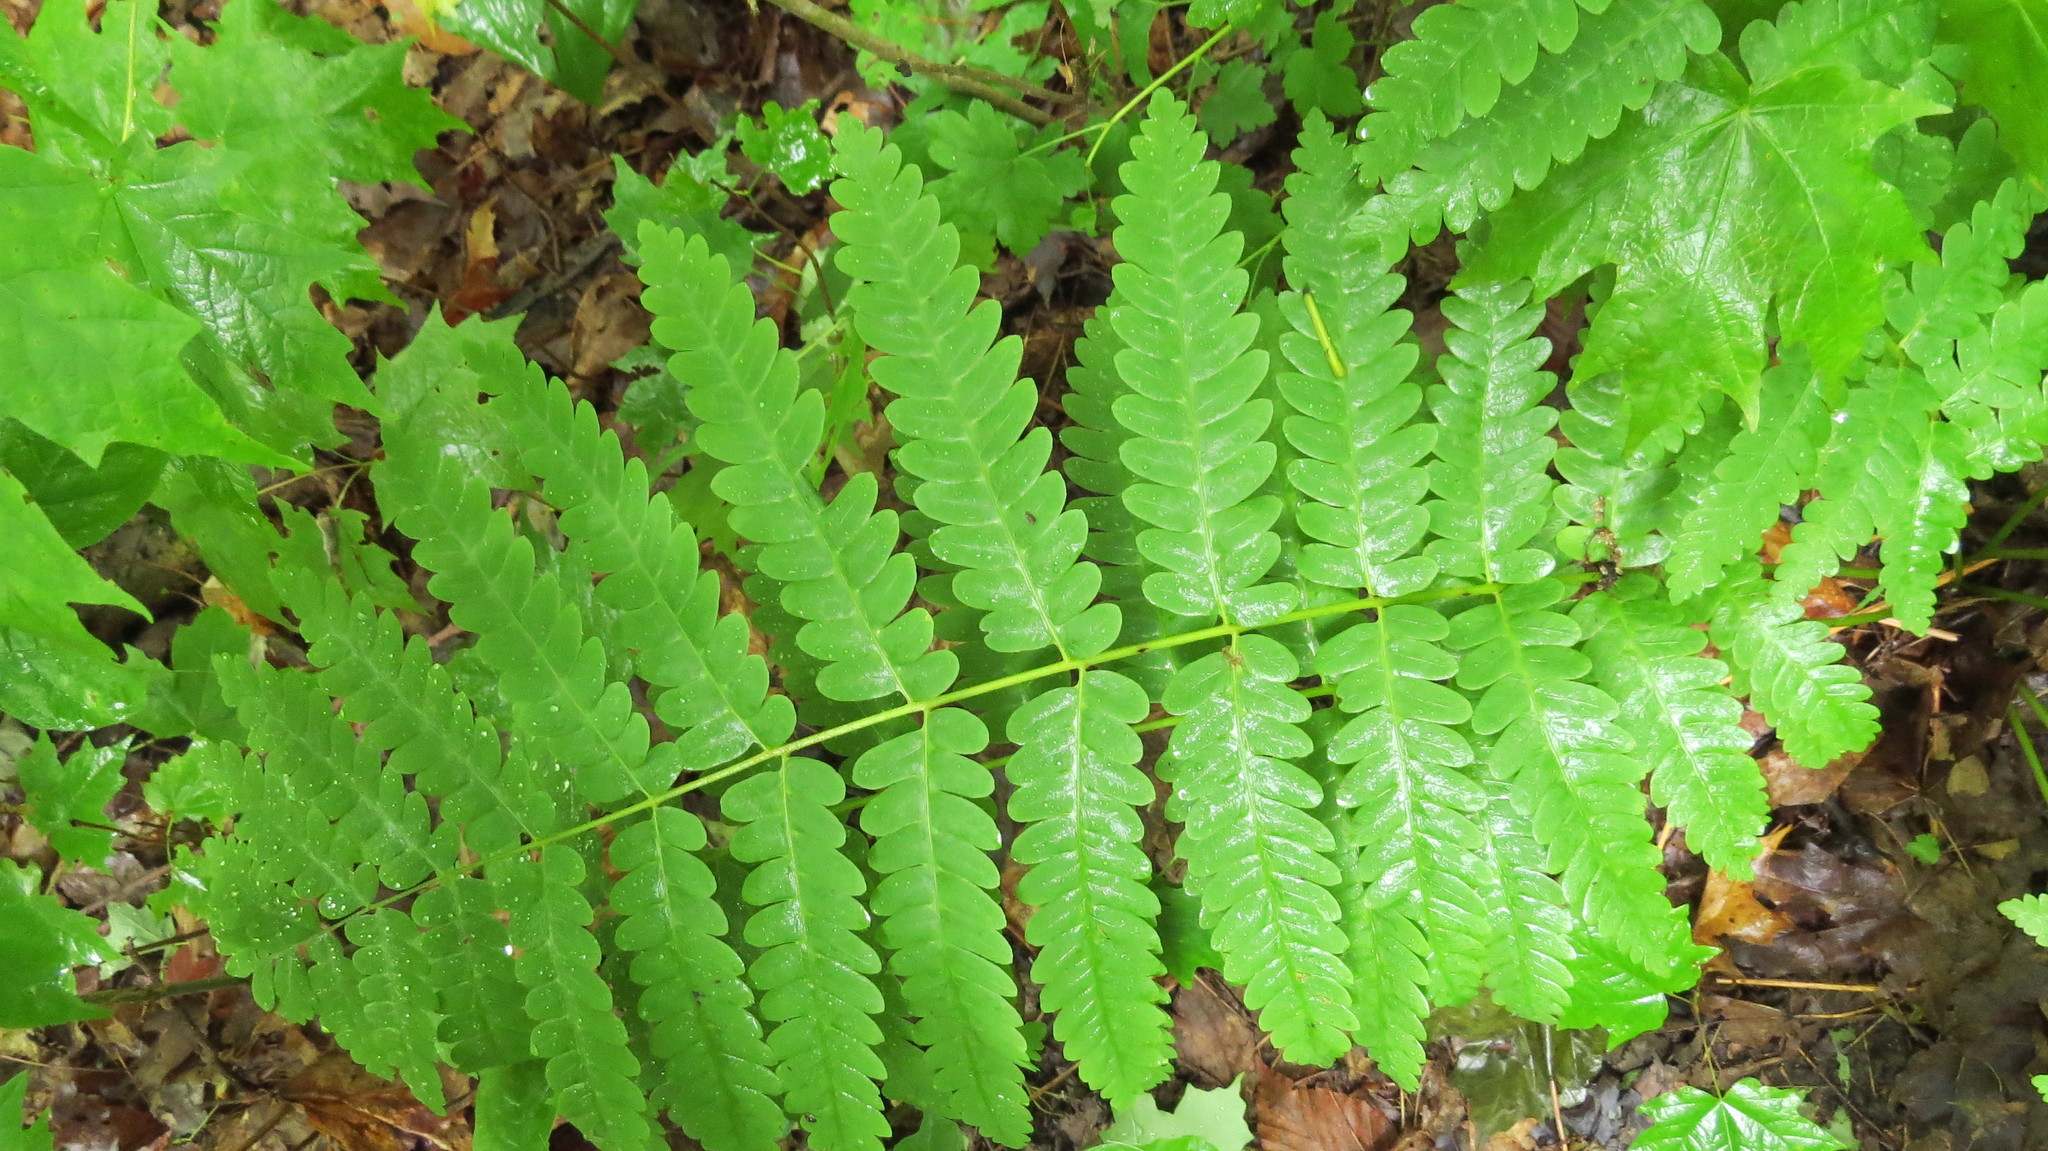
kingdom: Plantae
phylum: Tracheophyta
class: Polypodiopsida
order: Osmundales
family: Osmundaceae
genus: Claytosmunda
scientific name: Claytosmunda claytoniana
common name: Clayton's fern
